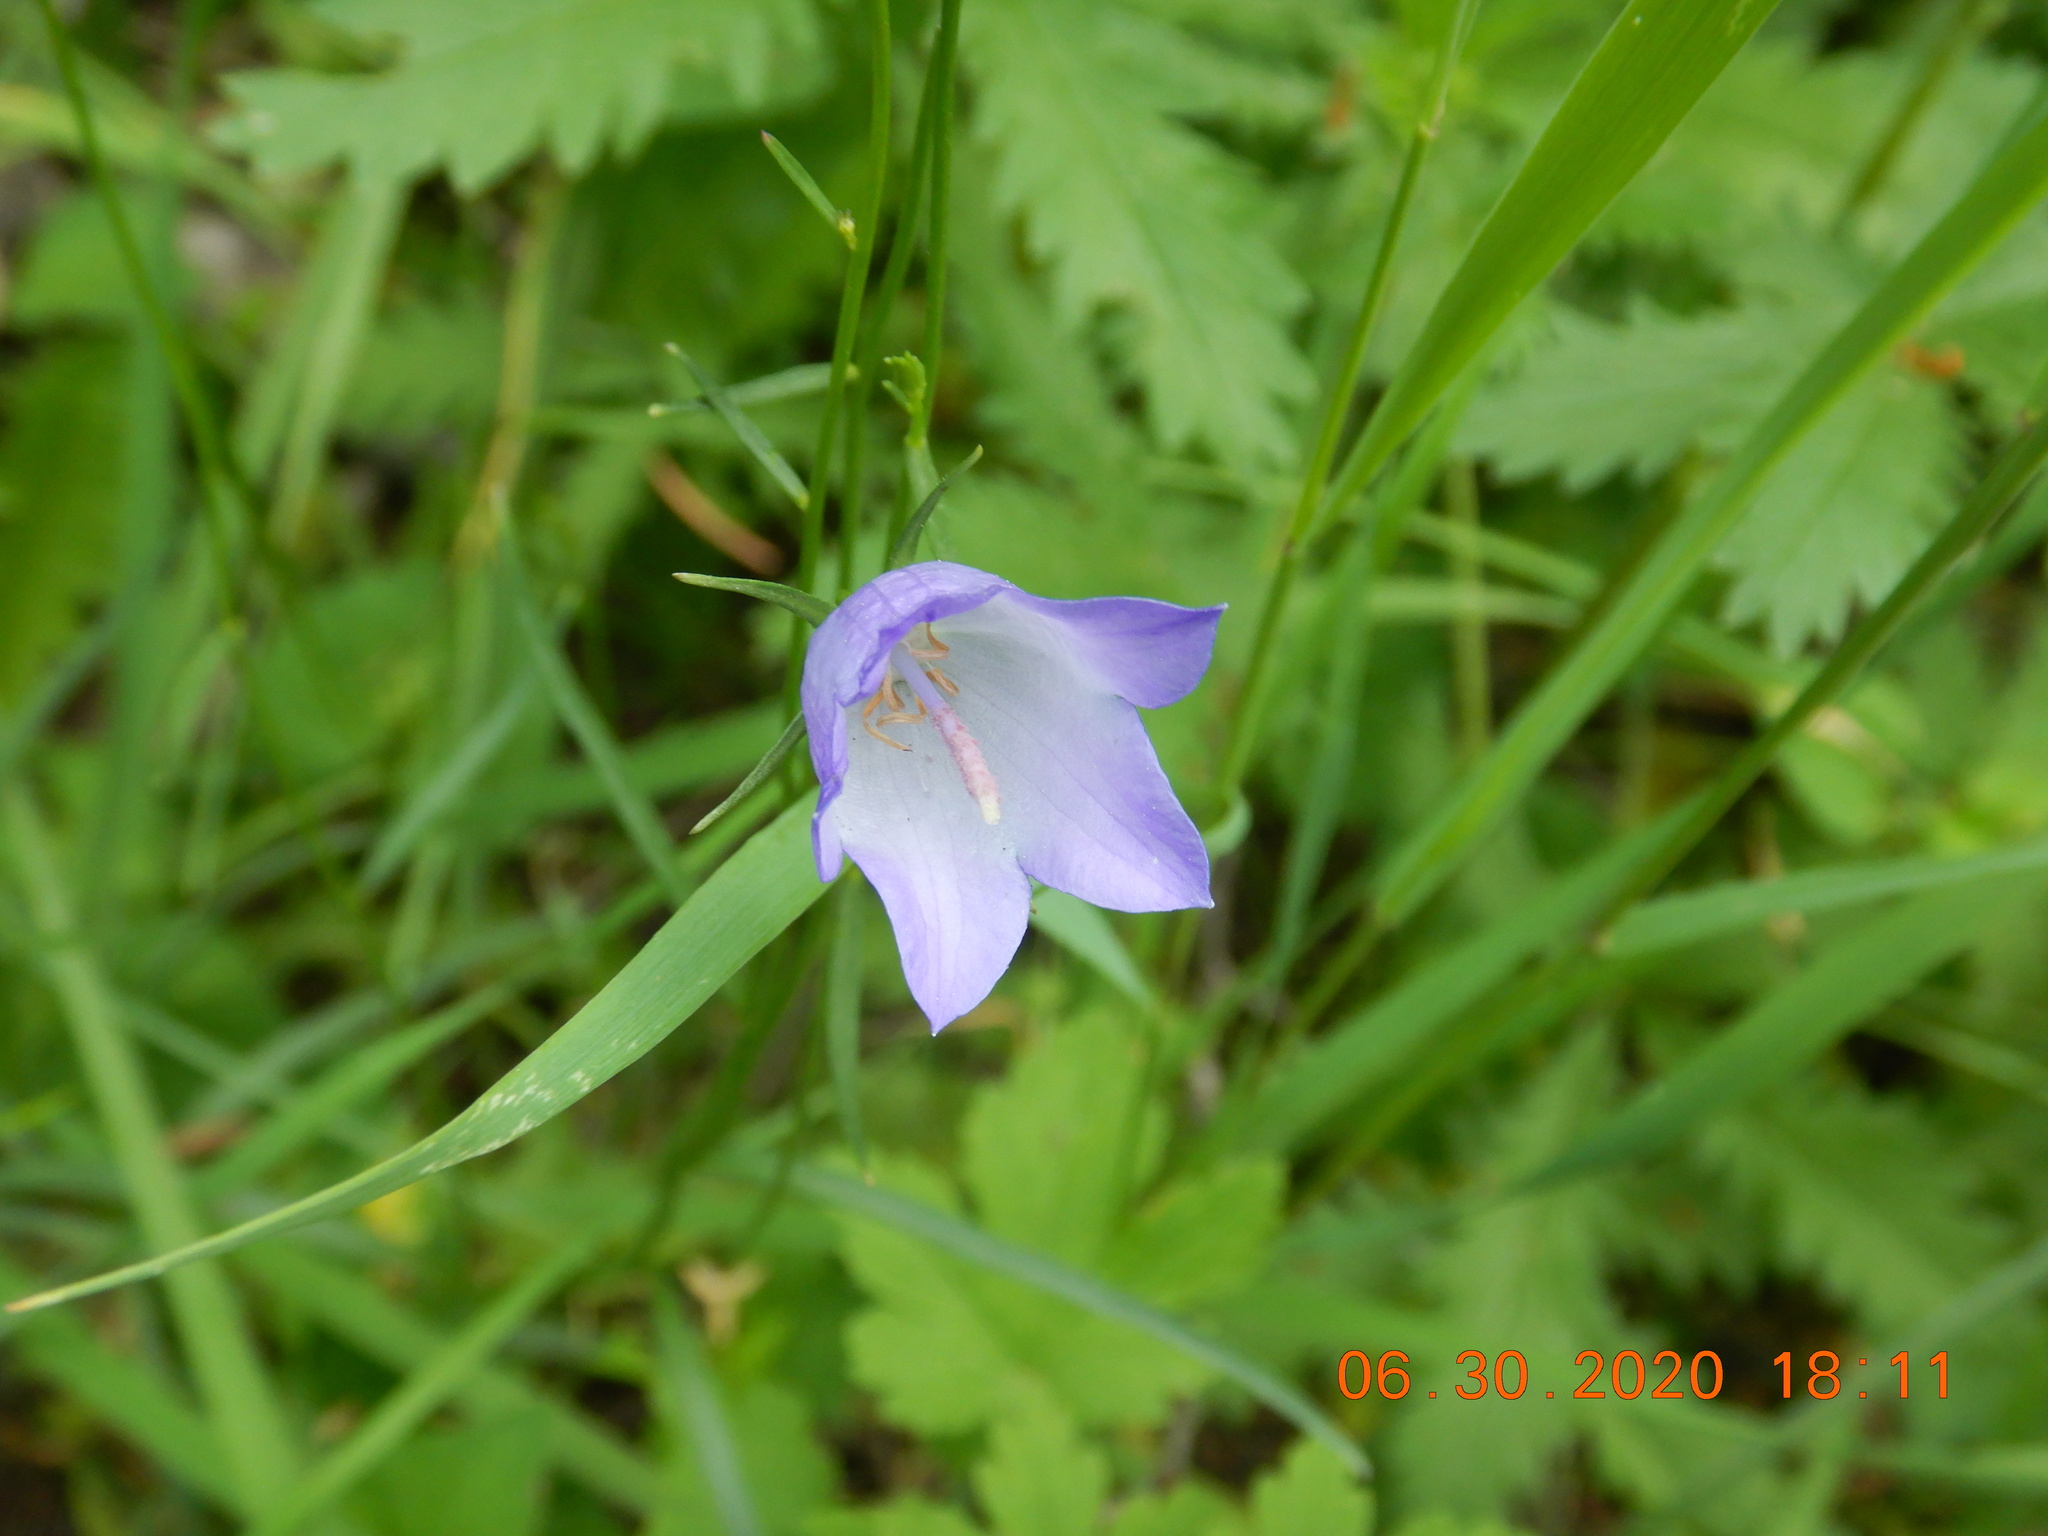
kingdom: Plantae
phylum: Tracheophyta
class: Magnoliopsida
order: Asterales
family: Campanulaceae
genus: Campanula
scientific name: Campanula petiolata
